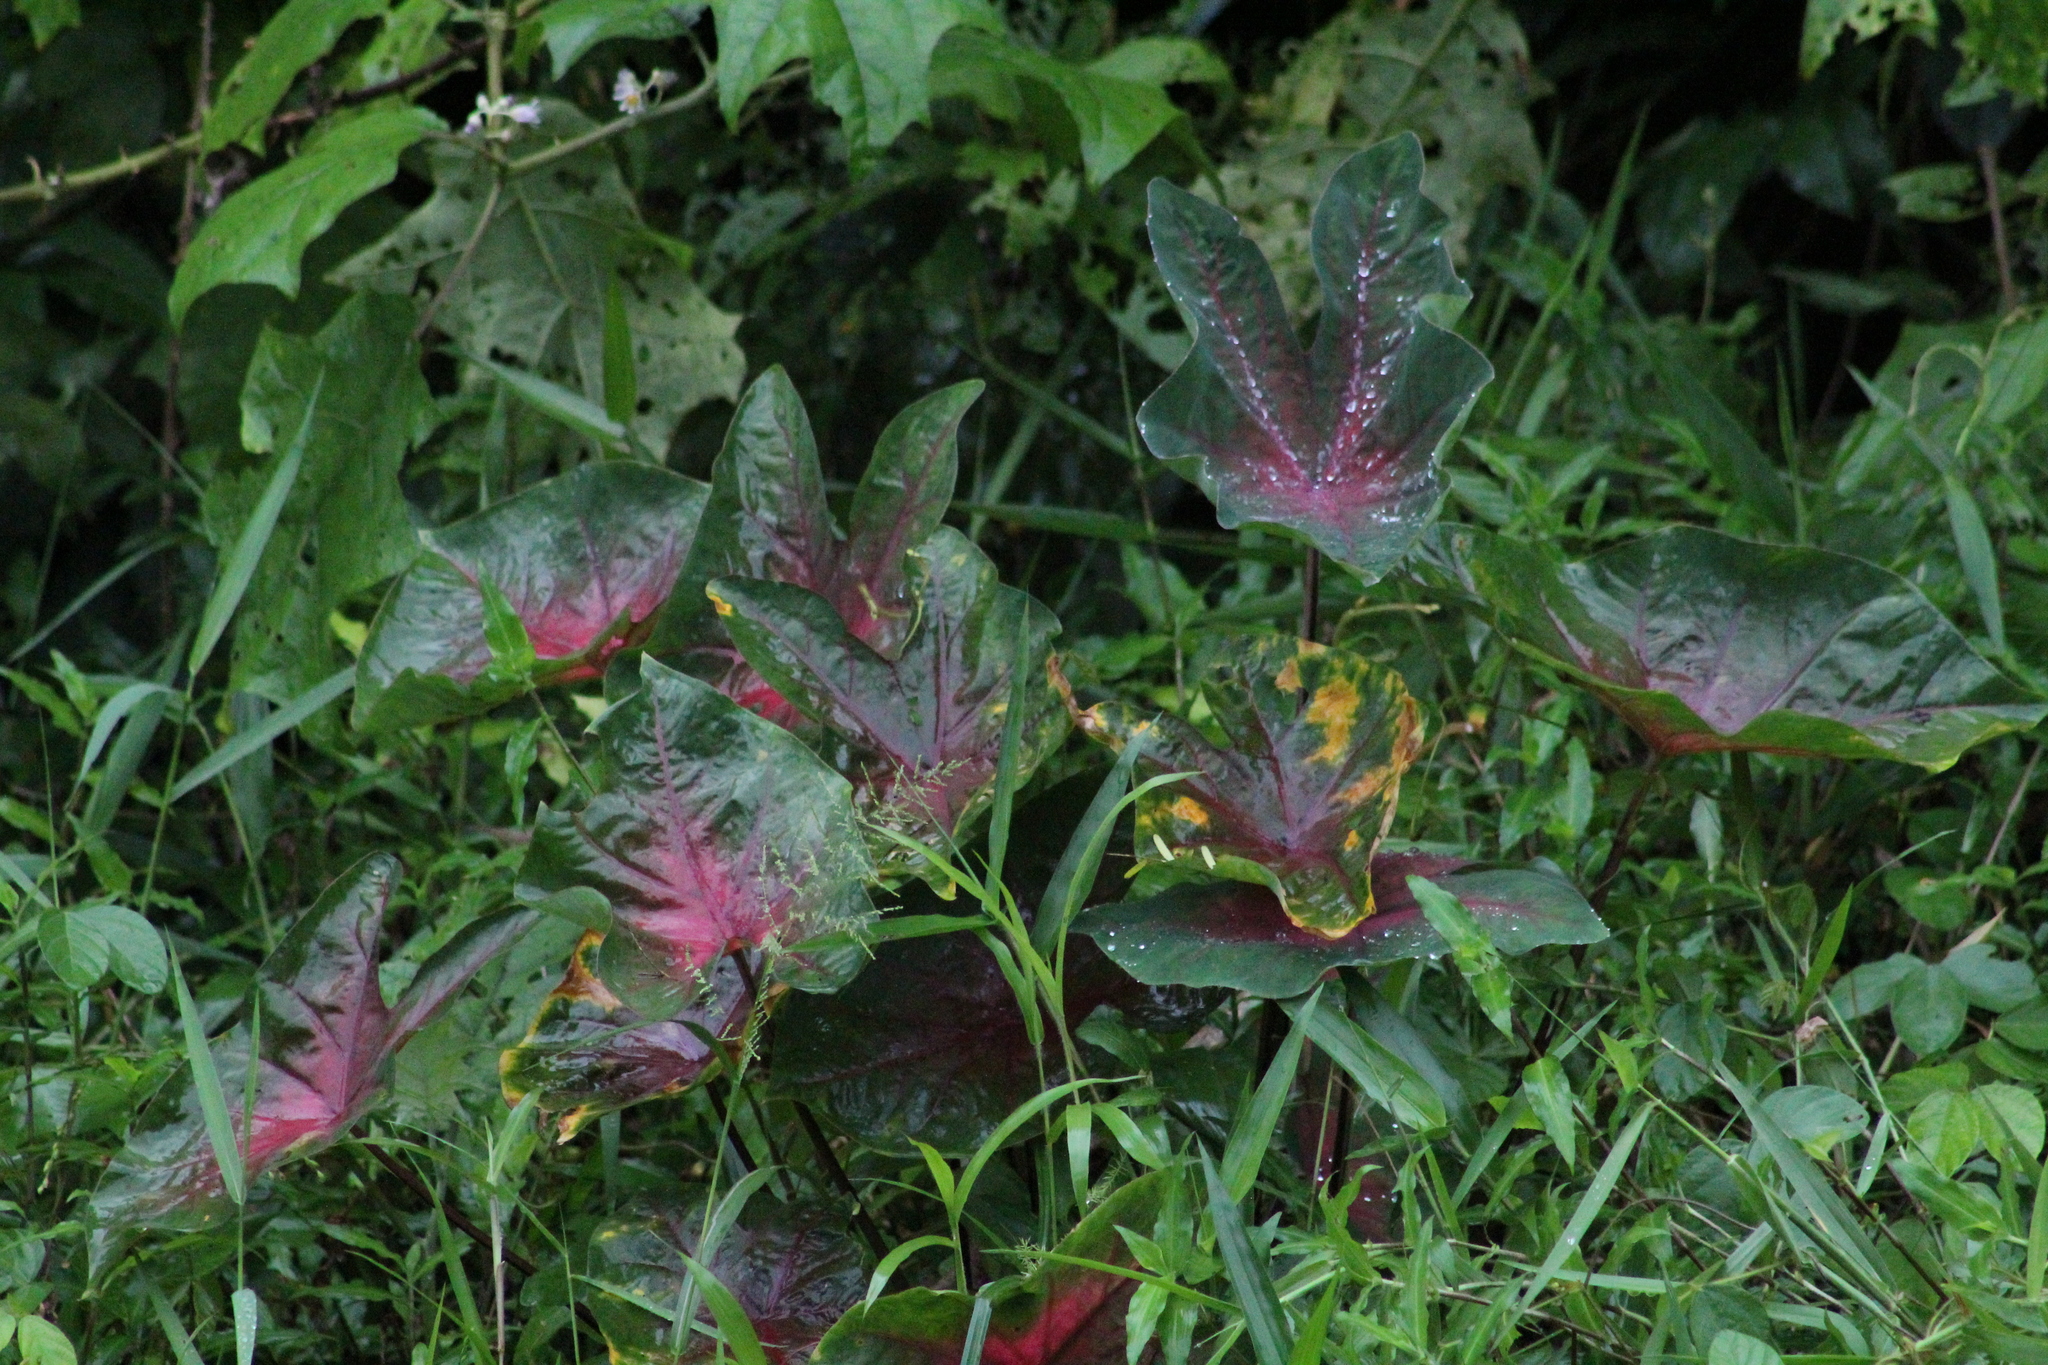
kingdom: Plantae
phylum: Tracheophyta
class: Liliopsida
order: Alismatales
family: Araceae
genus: Caladium
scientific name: Caladium bicolor
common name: Artist's pallet
